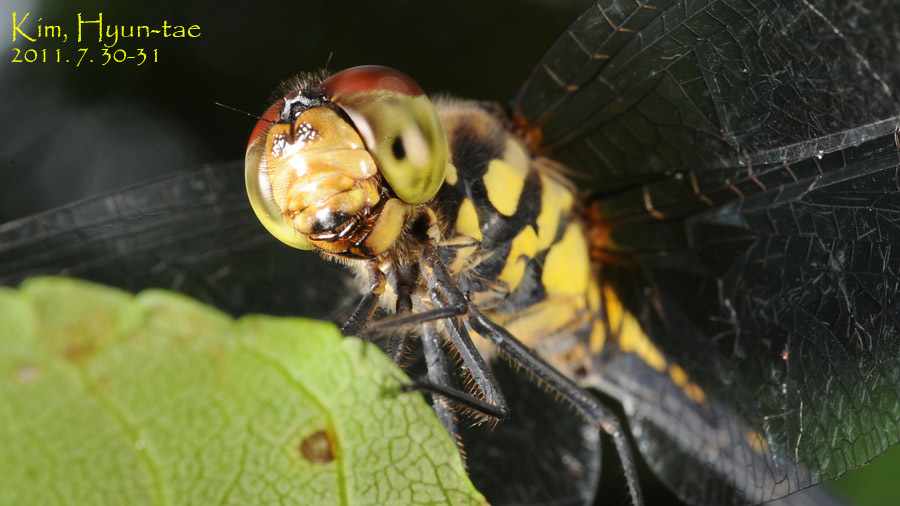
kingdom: Animalia
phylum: Arthropoda
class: Insecta
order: Odonata
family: Libellulidae
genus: Sympetrum
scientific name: Sympetrum infuscatum
